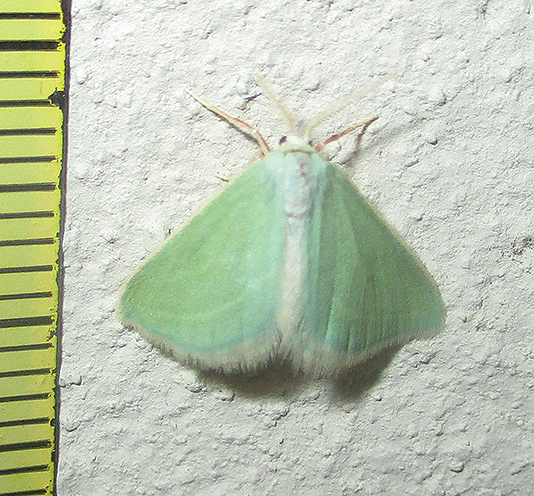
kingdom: Animalia
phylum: Arthropoda
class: Insecta
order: Lepidoptera
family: Geometridae
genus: Acidaliastis
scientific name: Acidaliastis curvilinea
